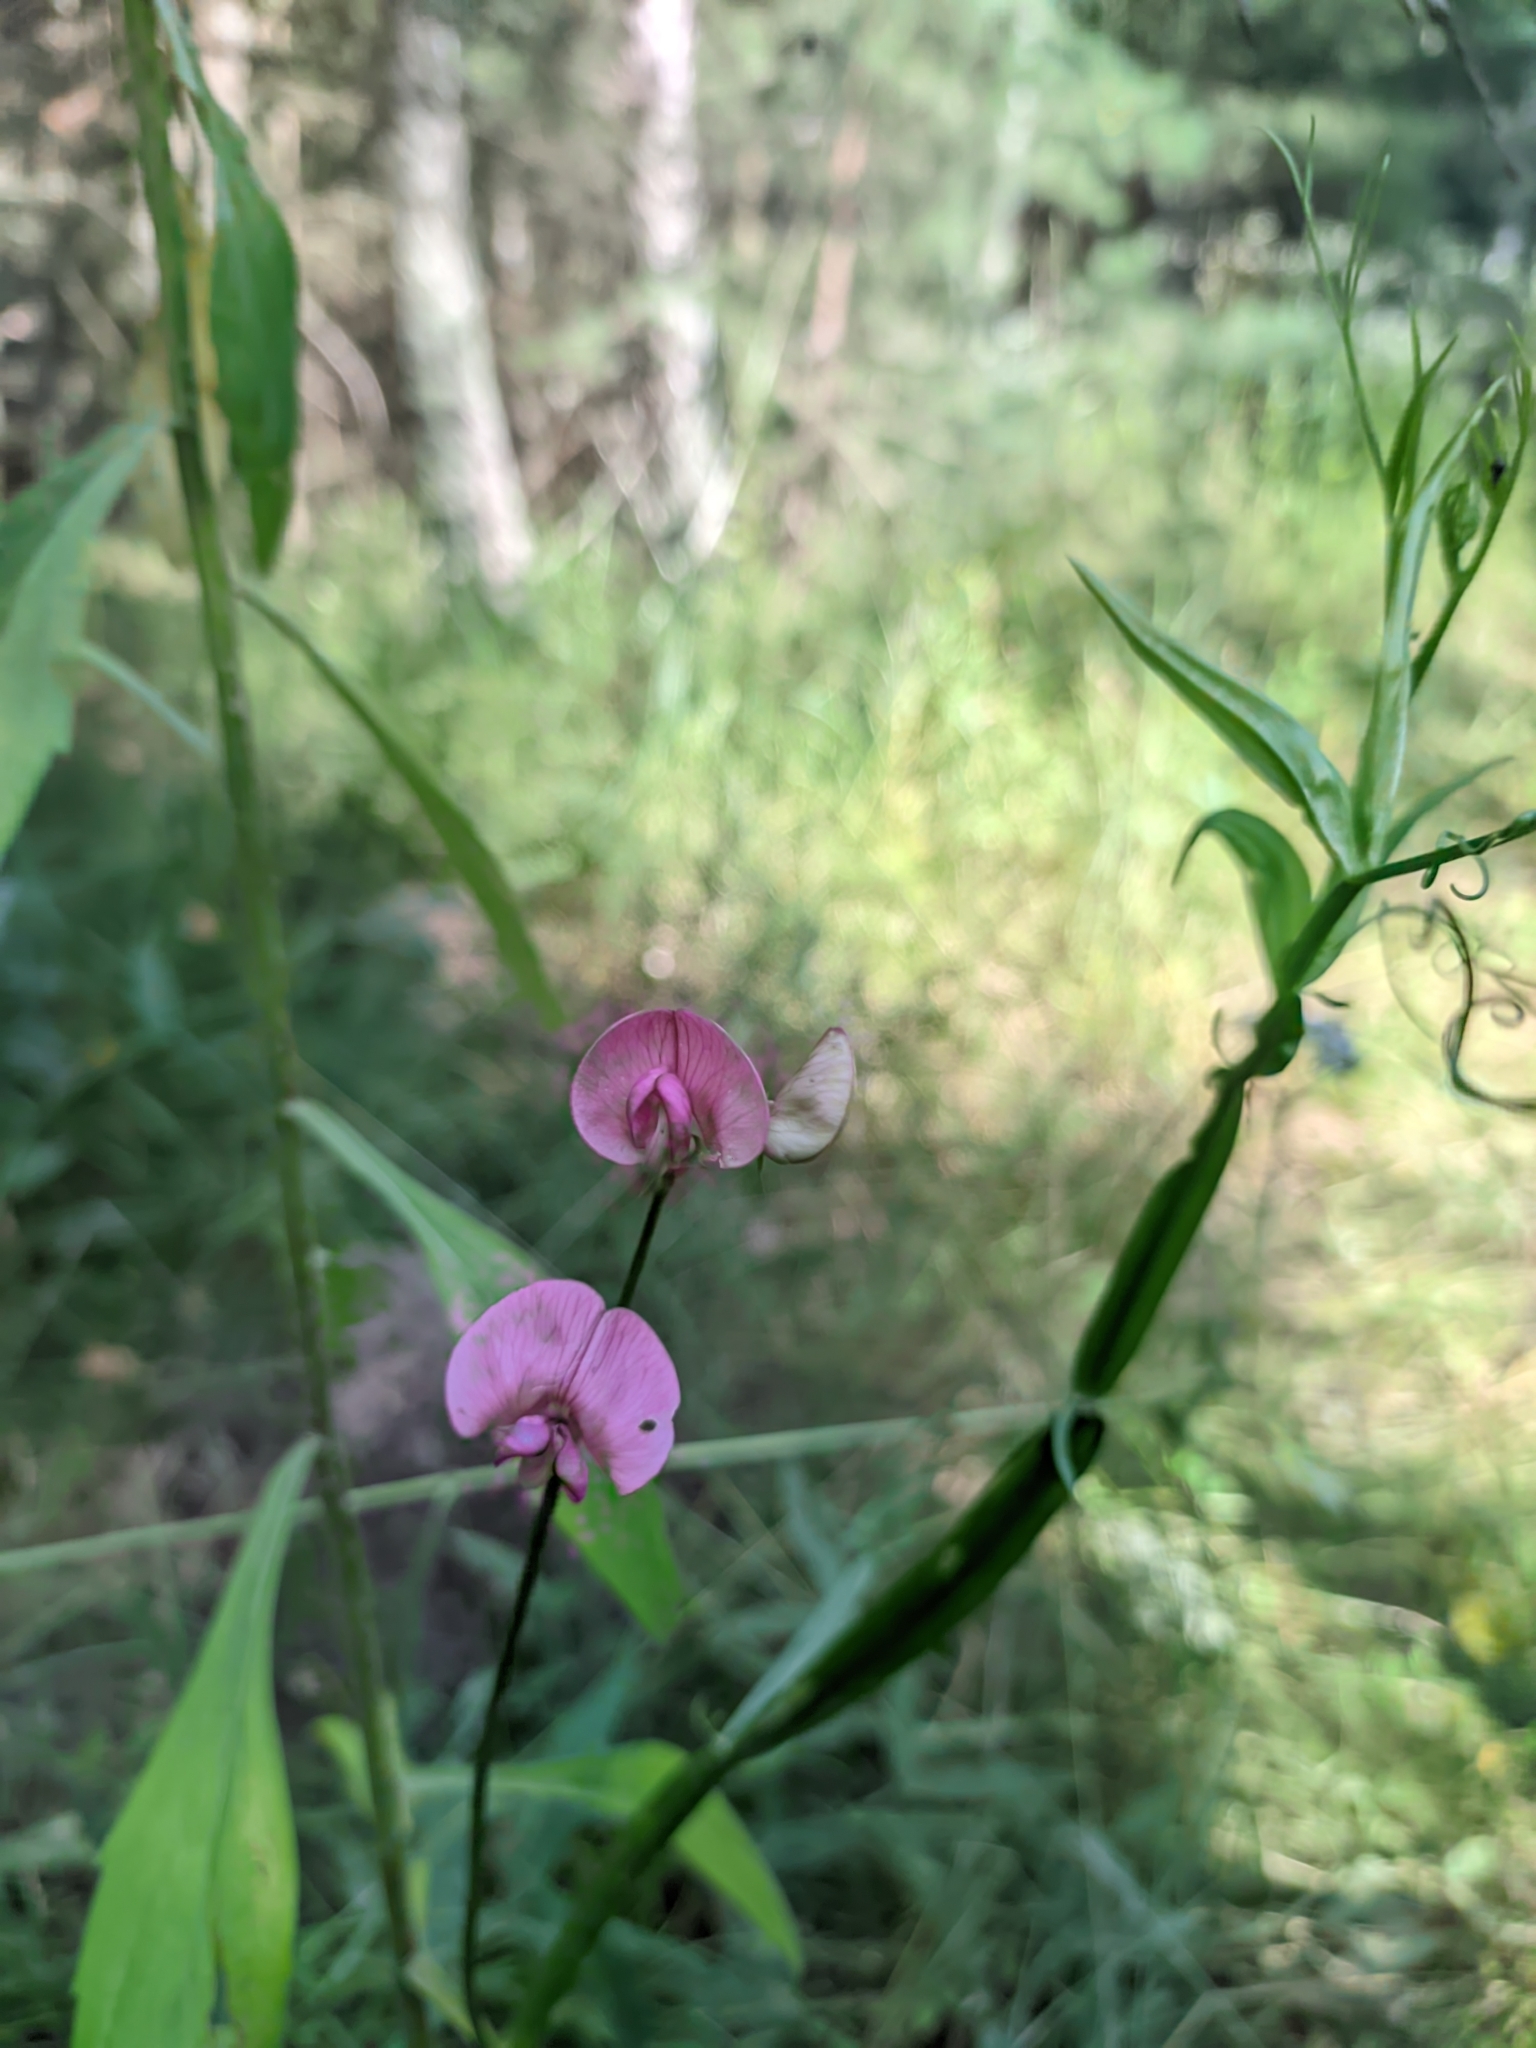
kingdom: Plantae
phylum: Tracheophyta
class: Magnoliopsida
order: Fabales
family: Fabaceae
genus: Lathyrus
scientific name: Lathyrus sylvestris
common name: Flat pea
